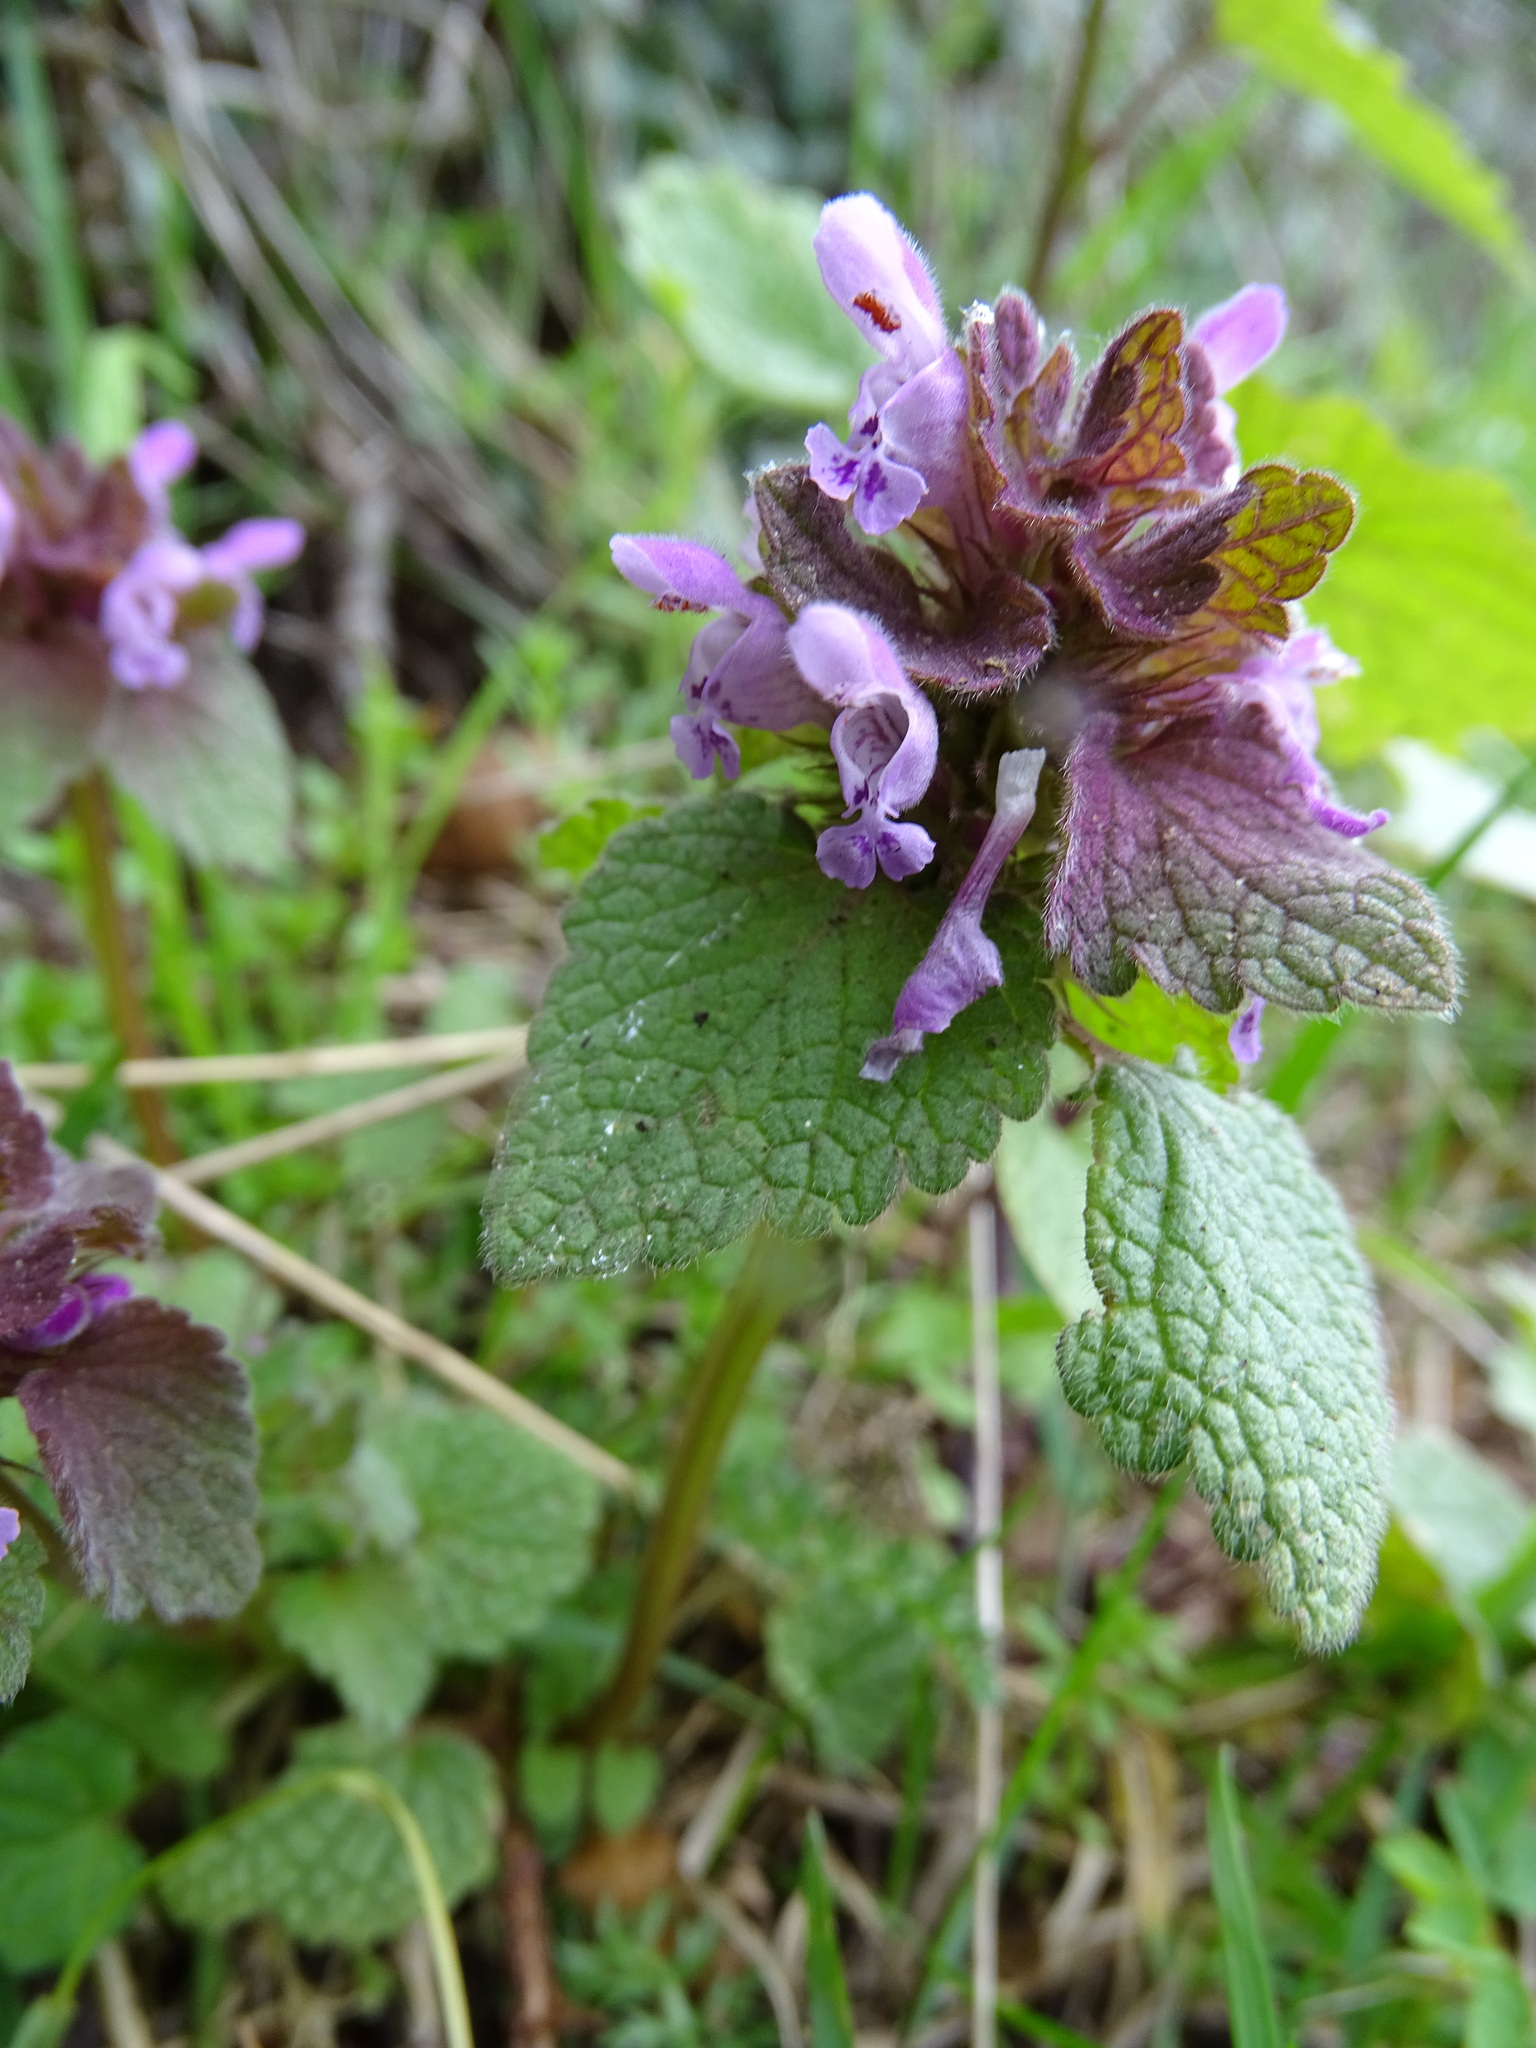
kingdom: Plantae
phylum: Tracheophyta
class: Magnoliopsida
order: Lamiales
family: Lamiaceae
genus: Lamium
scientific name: Lamium purpureum
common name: Red dead-nettle
